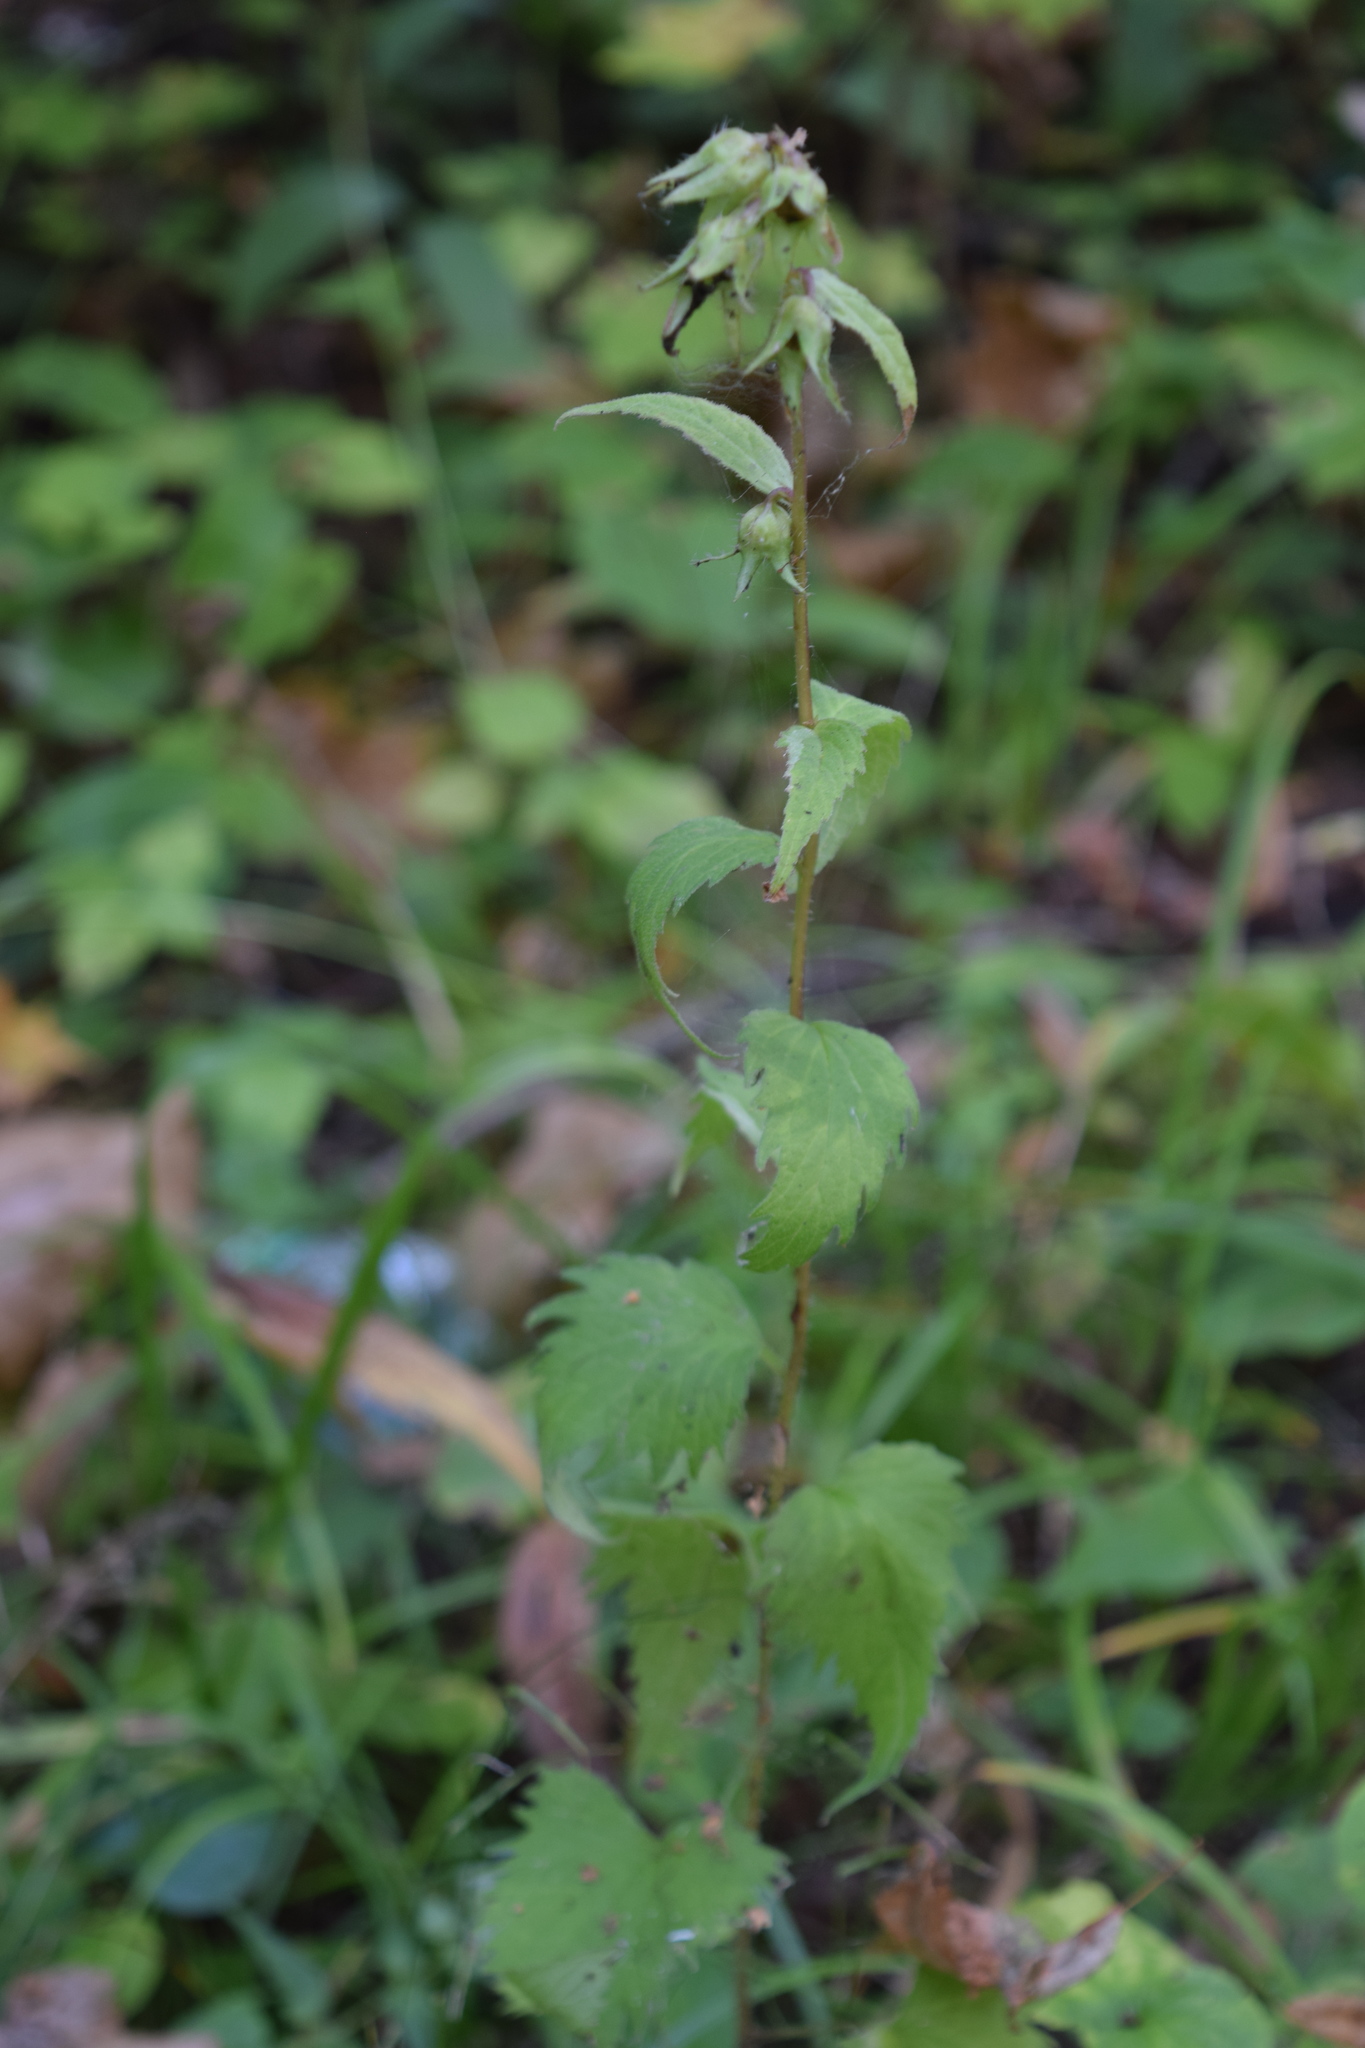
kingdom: Plantae
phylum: Tracheophyta
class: Magnoliopsida
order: Asterales
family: Campanulaceae
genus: Campanula
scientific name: Campanula trachelium
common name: Nettle-leaved bellflower
